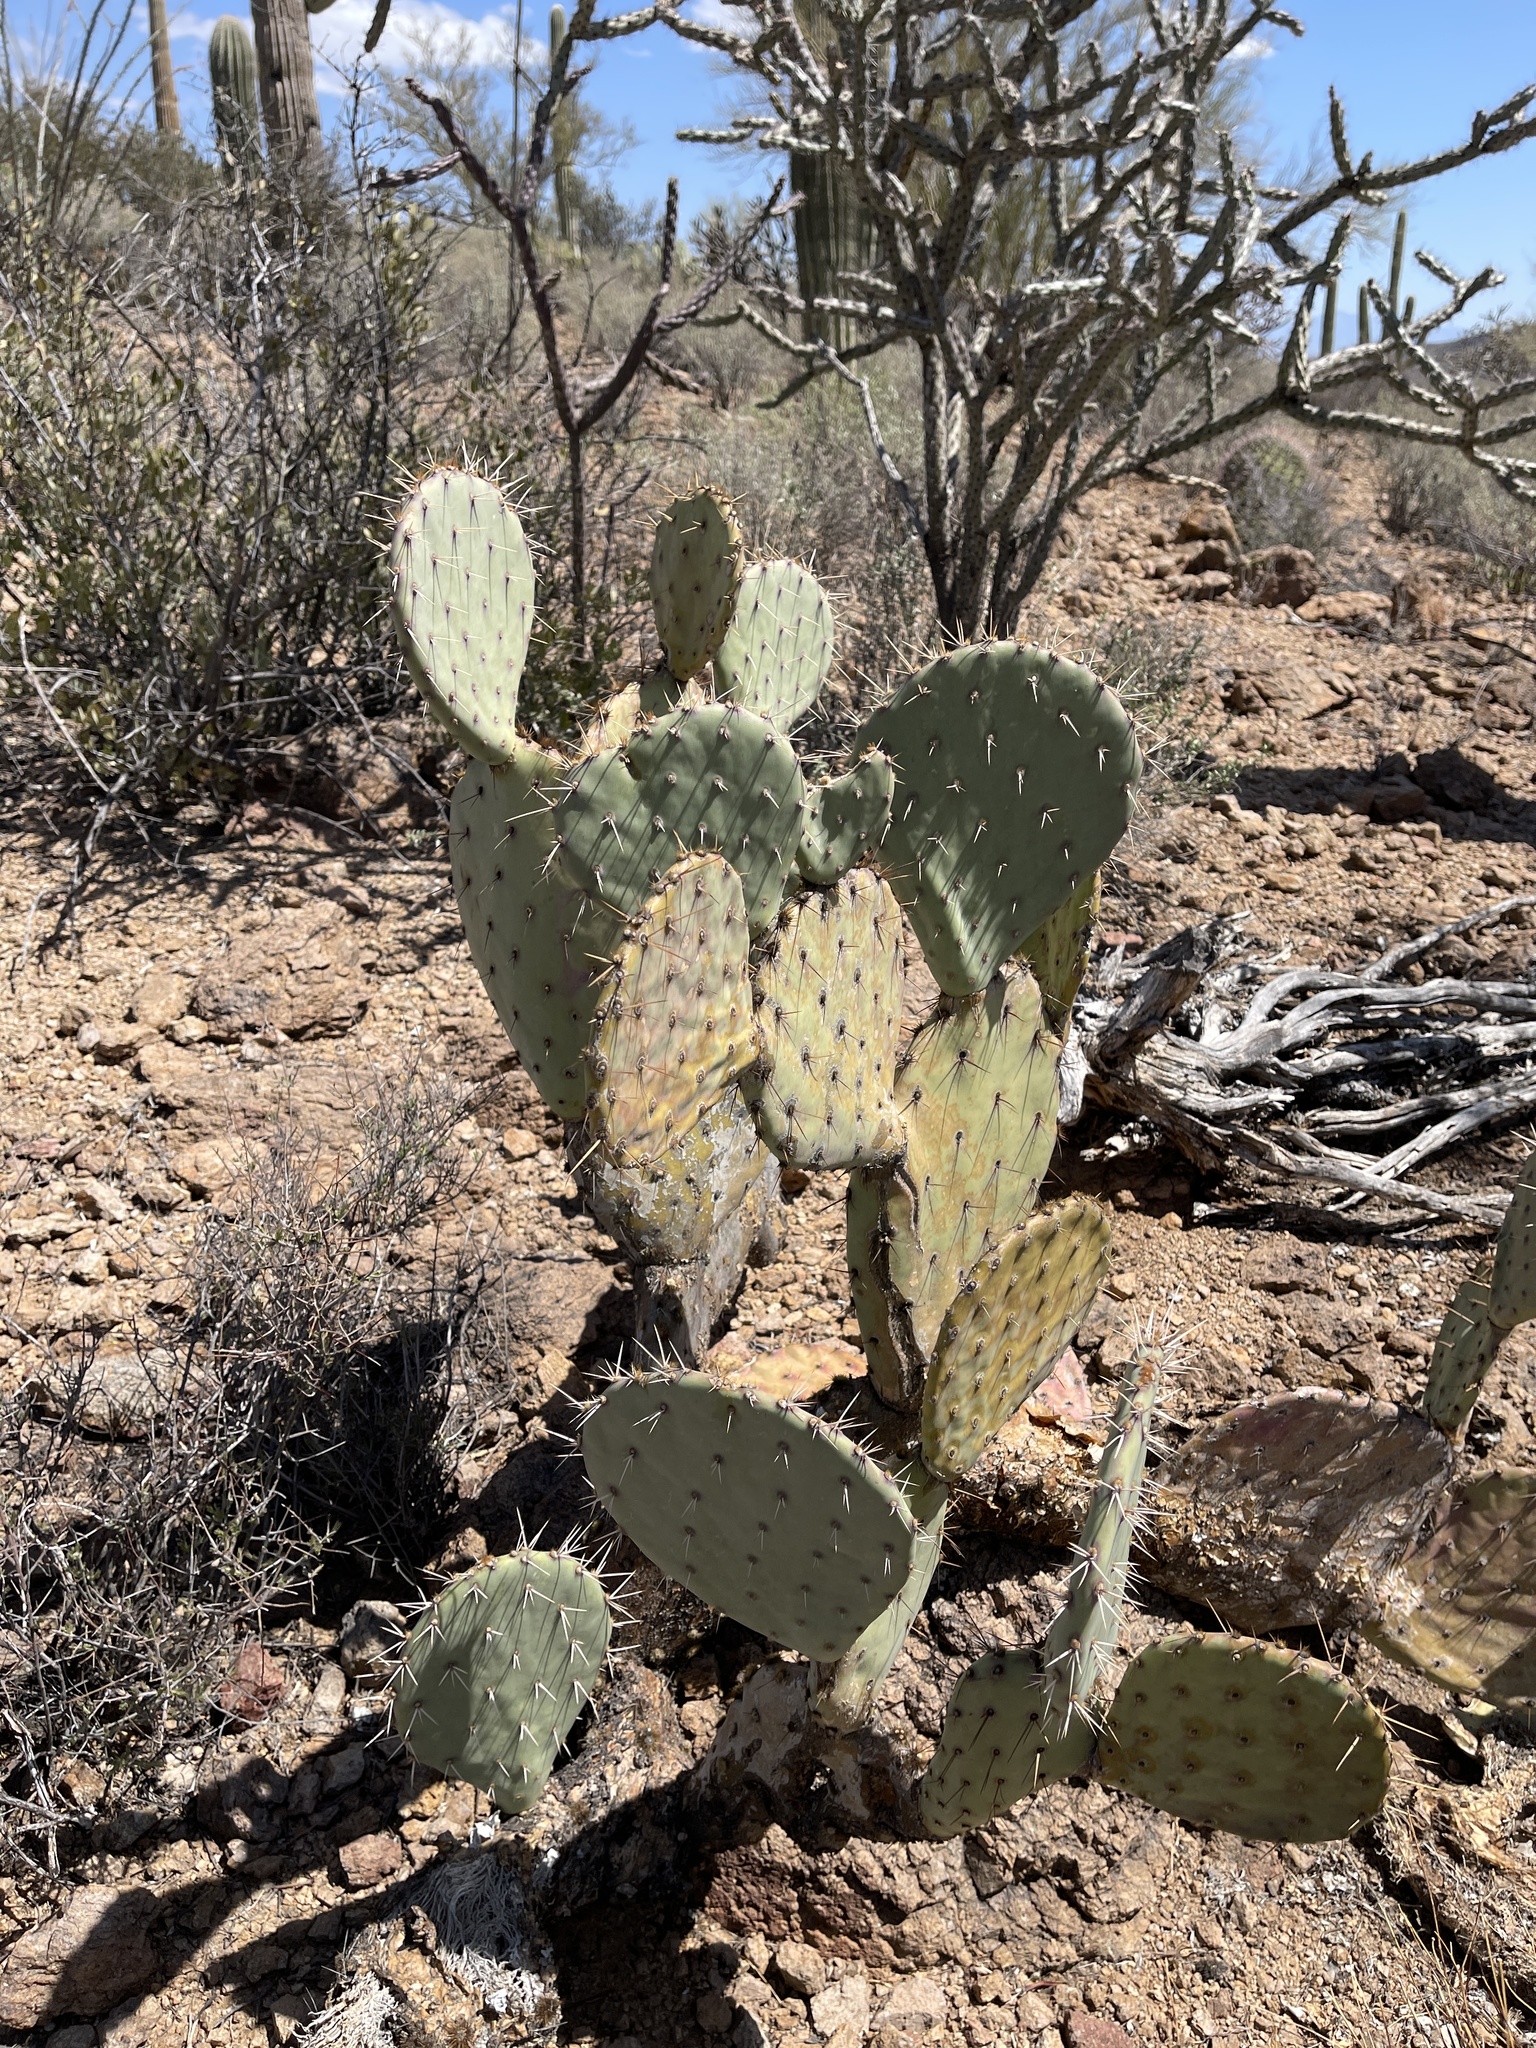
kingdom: Plantae
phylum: Tracheophyta
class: Magnoliopsida
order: Caryophyllales
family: Cactaceae
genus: Opuntia
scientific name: Opuntia engelmannii
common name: Cactus-apple
